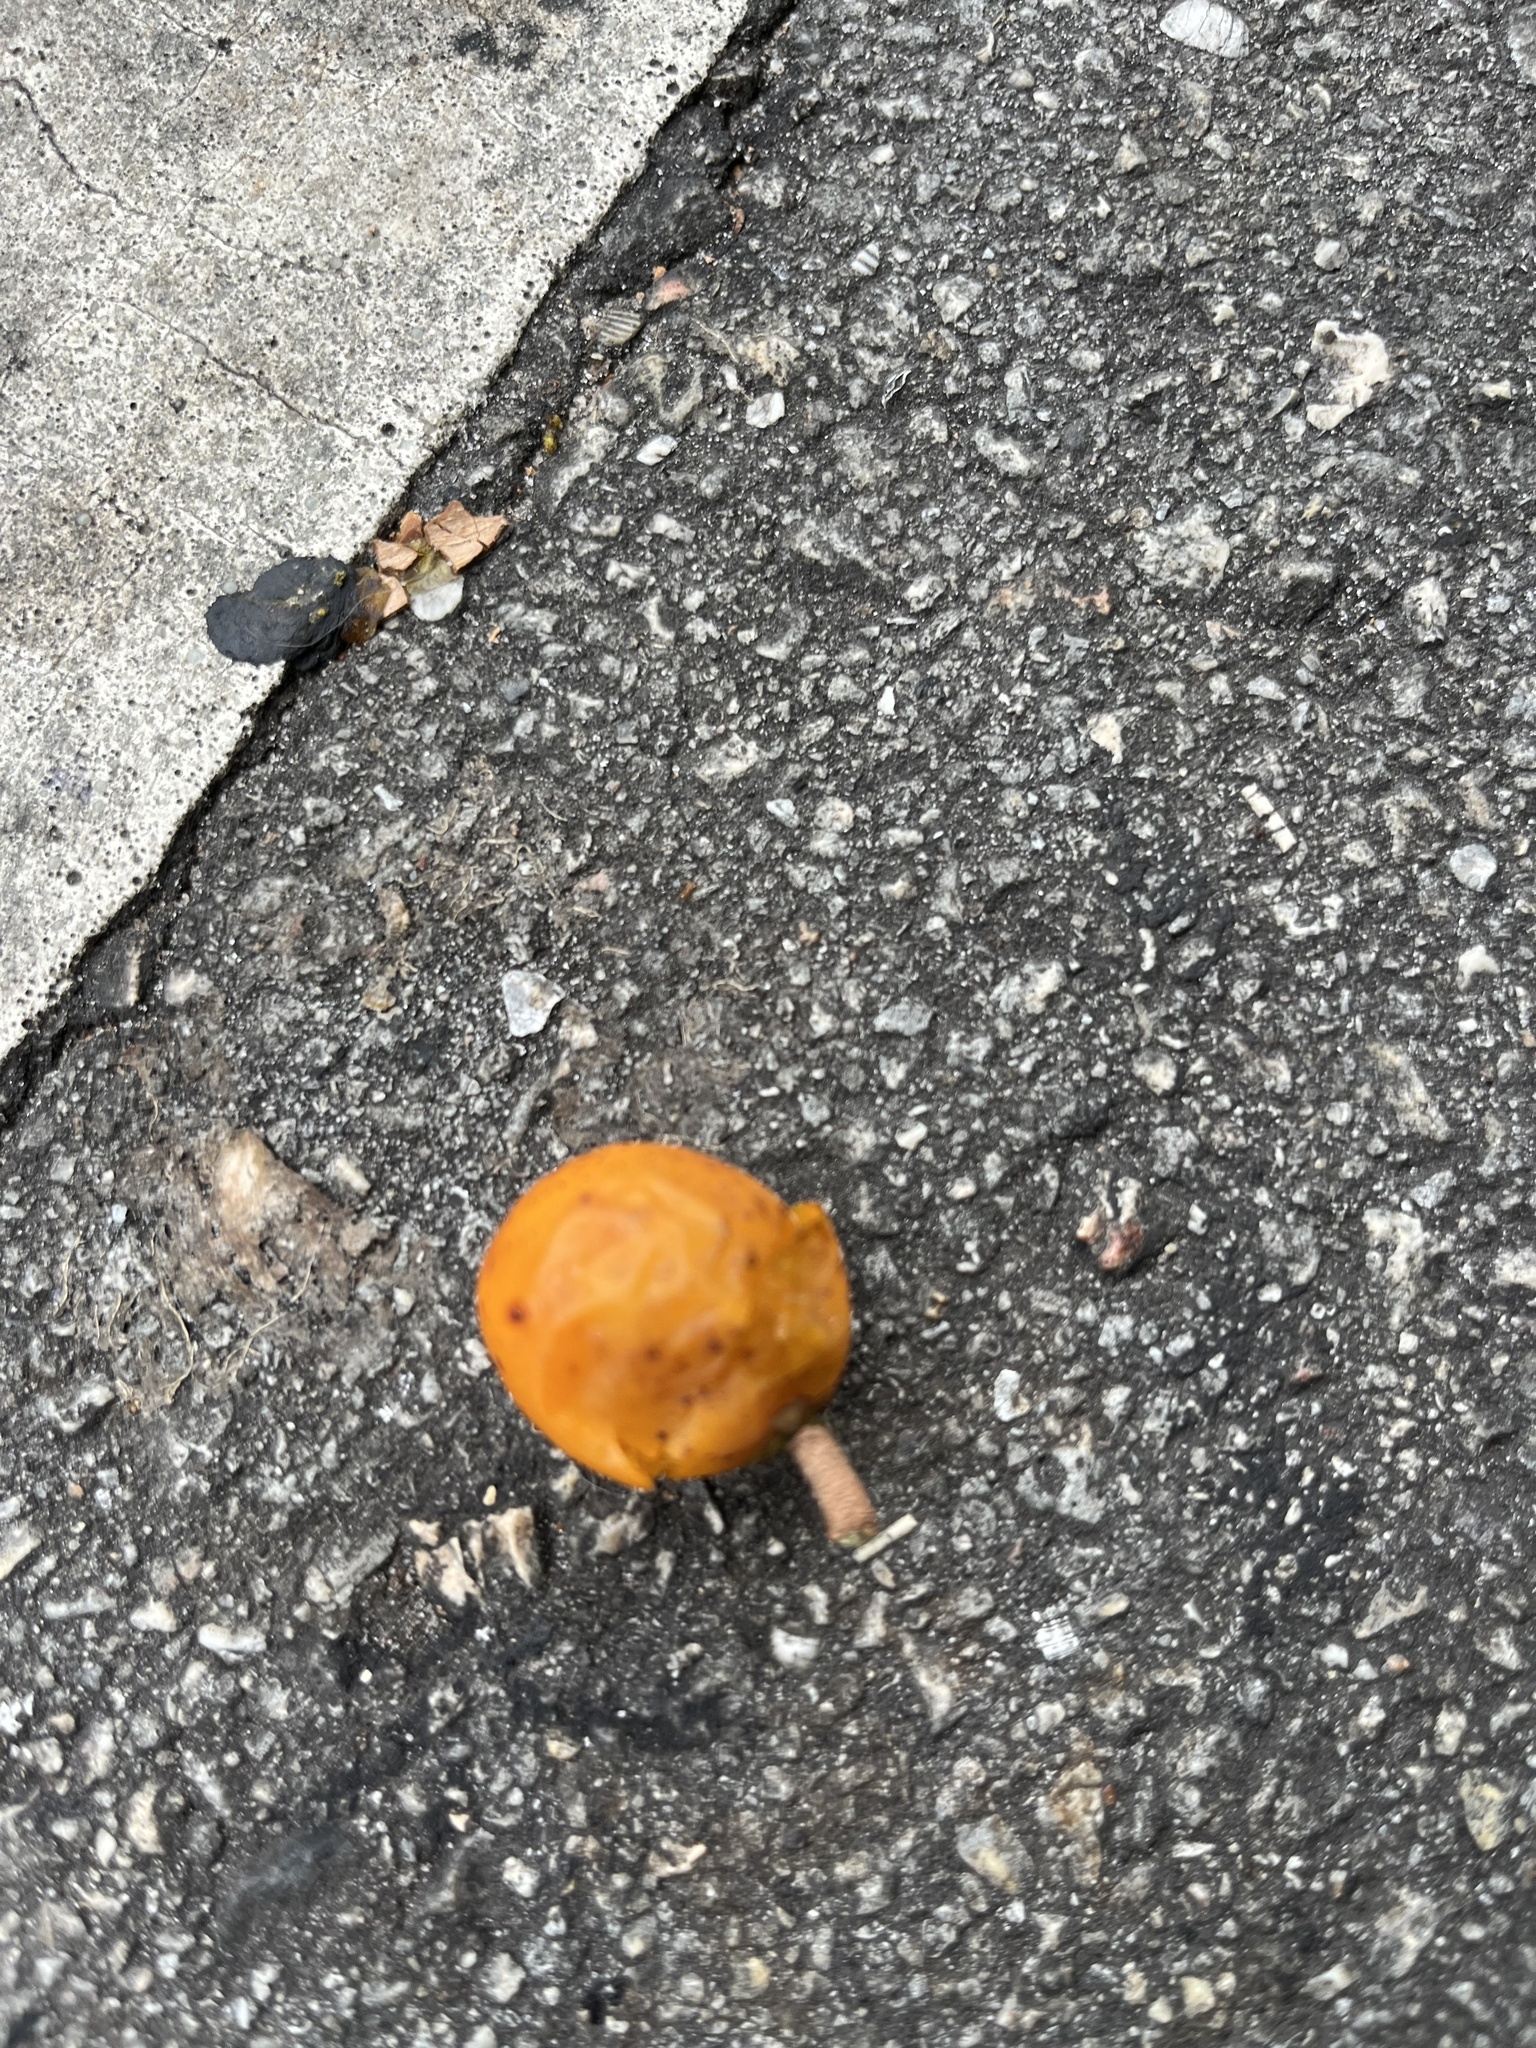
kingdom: Plantae
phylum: Tracheophyta
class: Magnoliopsida
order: Ericales
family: Sapotaceae
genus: Sideroxylon
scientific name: Sideroxylon foetidissimum
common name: Barbados-mastic
